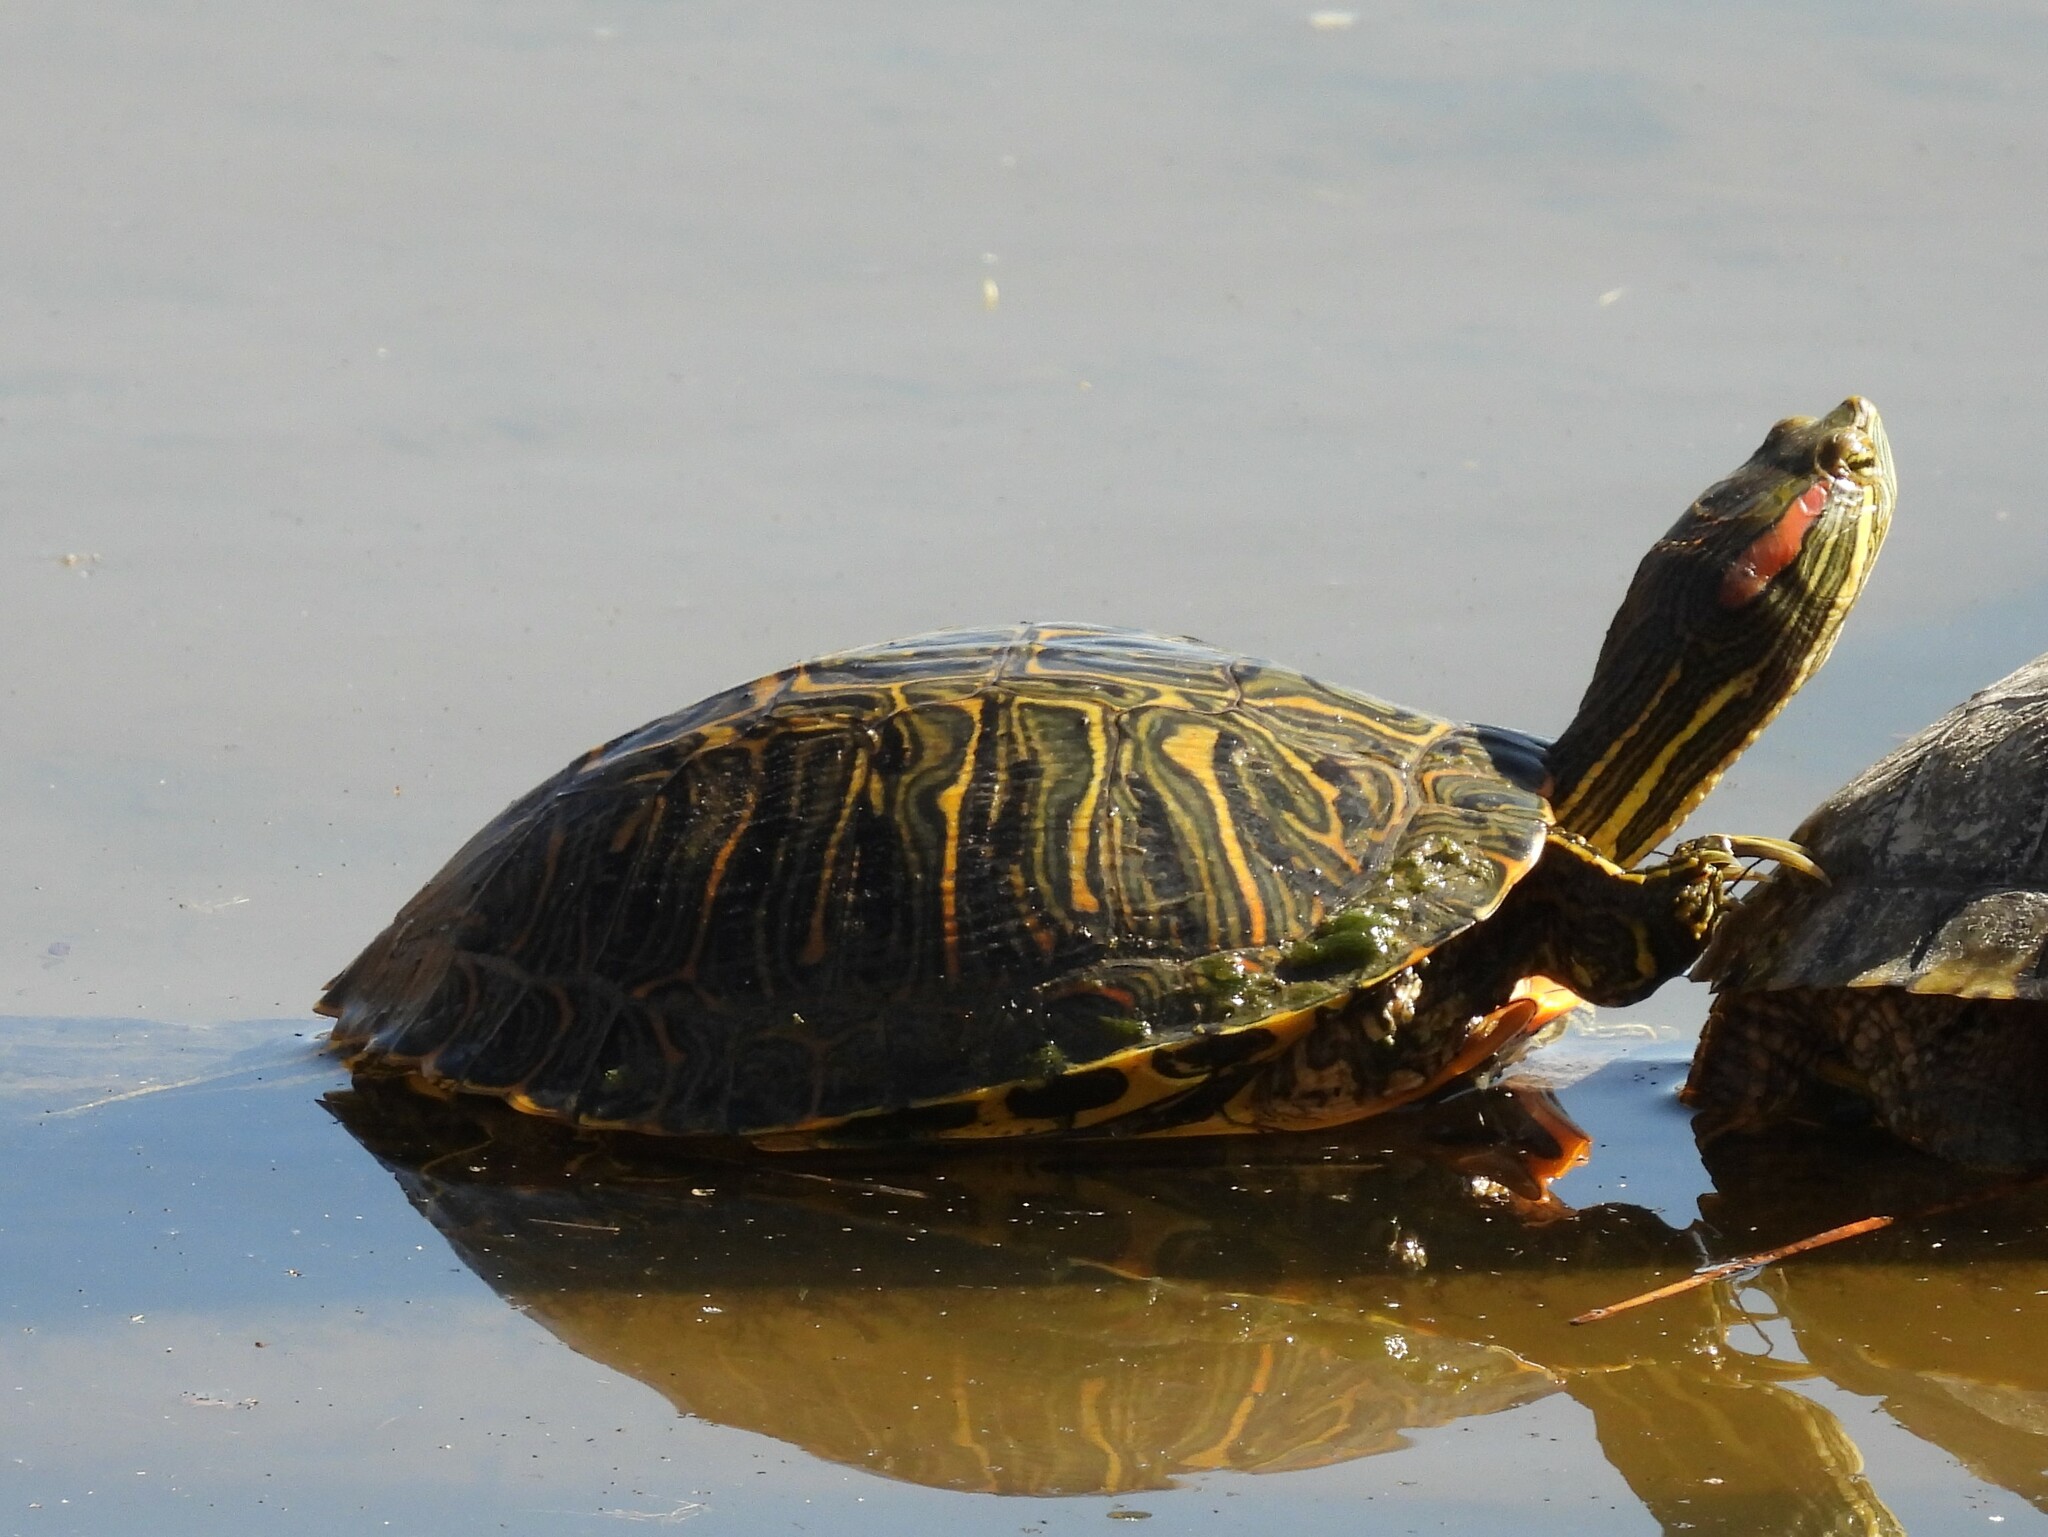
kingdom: Animalia
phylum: Chordata
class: Testudines
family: Emydidae
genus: Trachemys
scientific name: Trachemys scripta
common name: Slider
